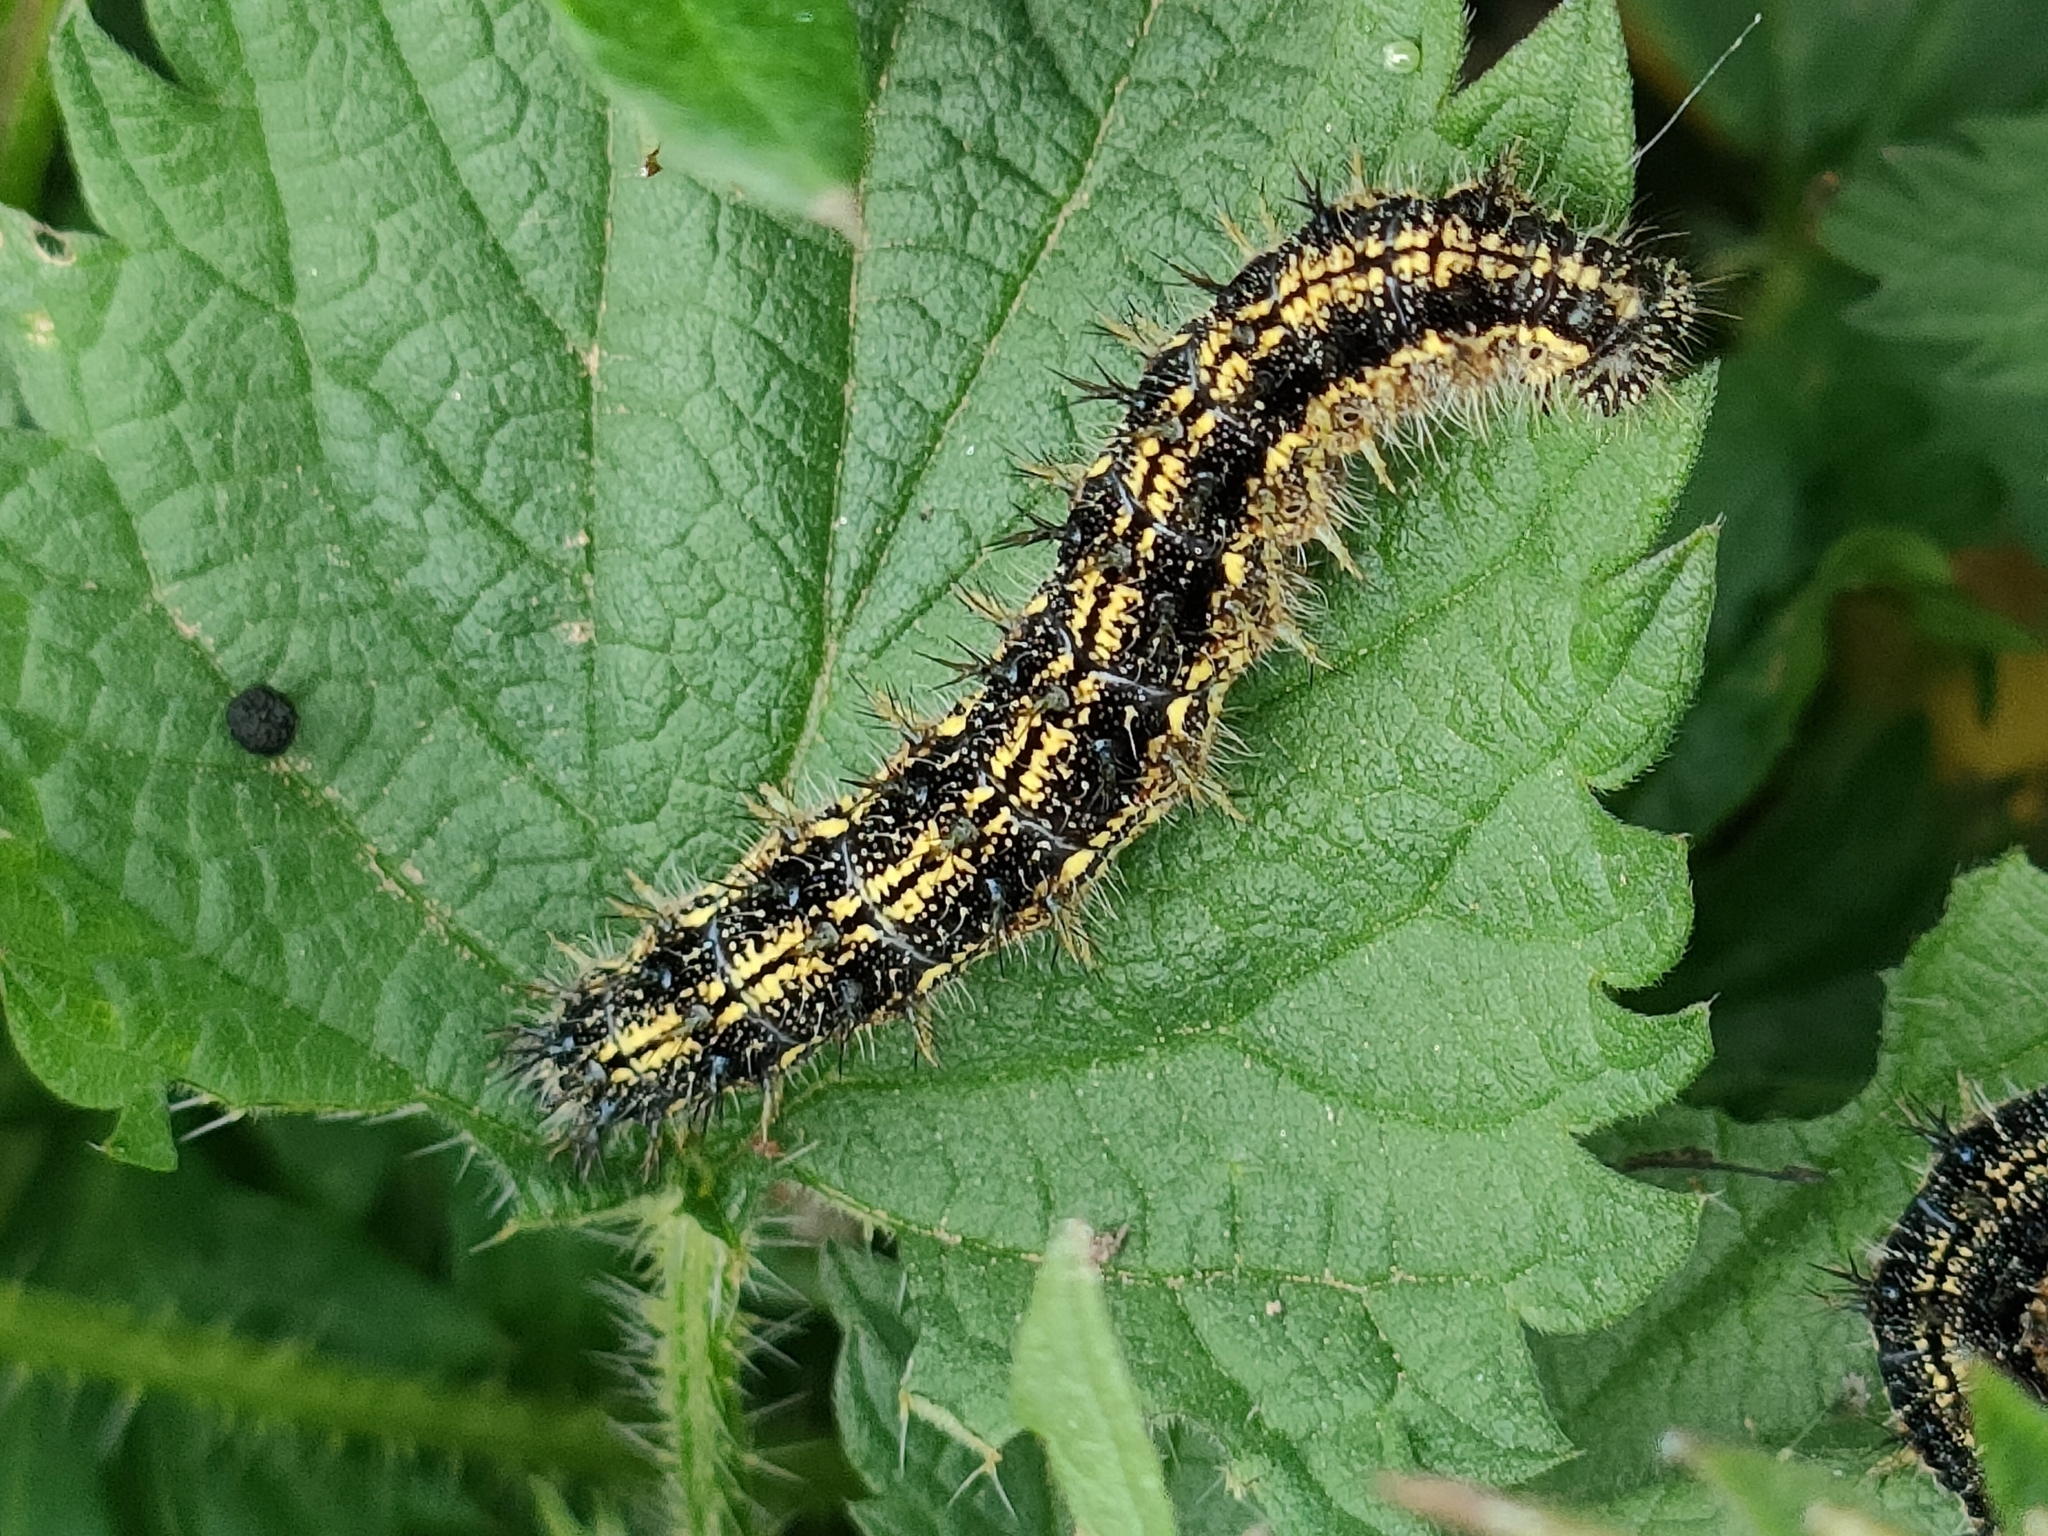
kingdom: Animalia
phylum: Arthropoda
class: Insecta
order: Lepidoptera
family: Nymphalidae
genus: Aglais
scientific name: Aglais urticae
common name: Small tortoiseshell
